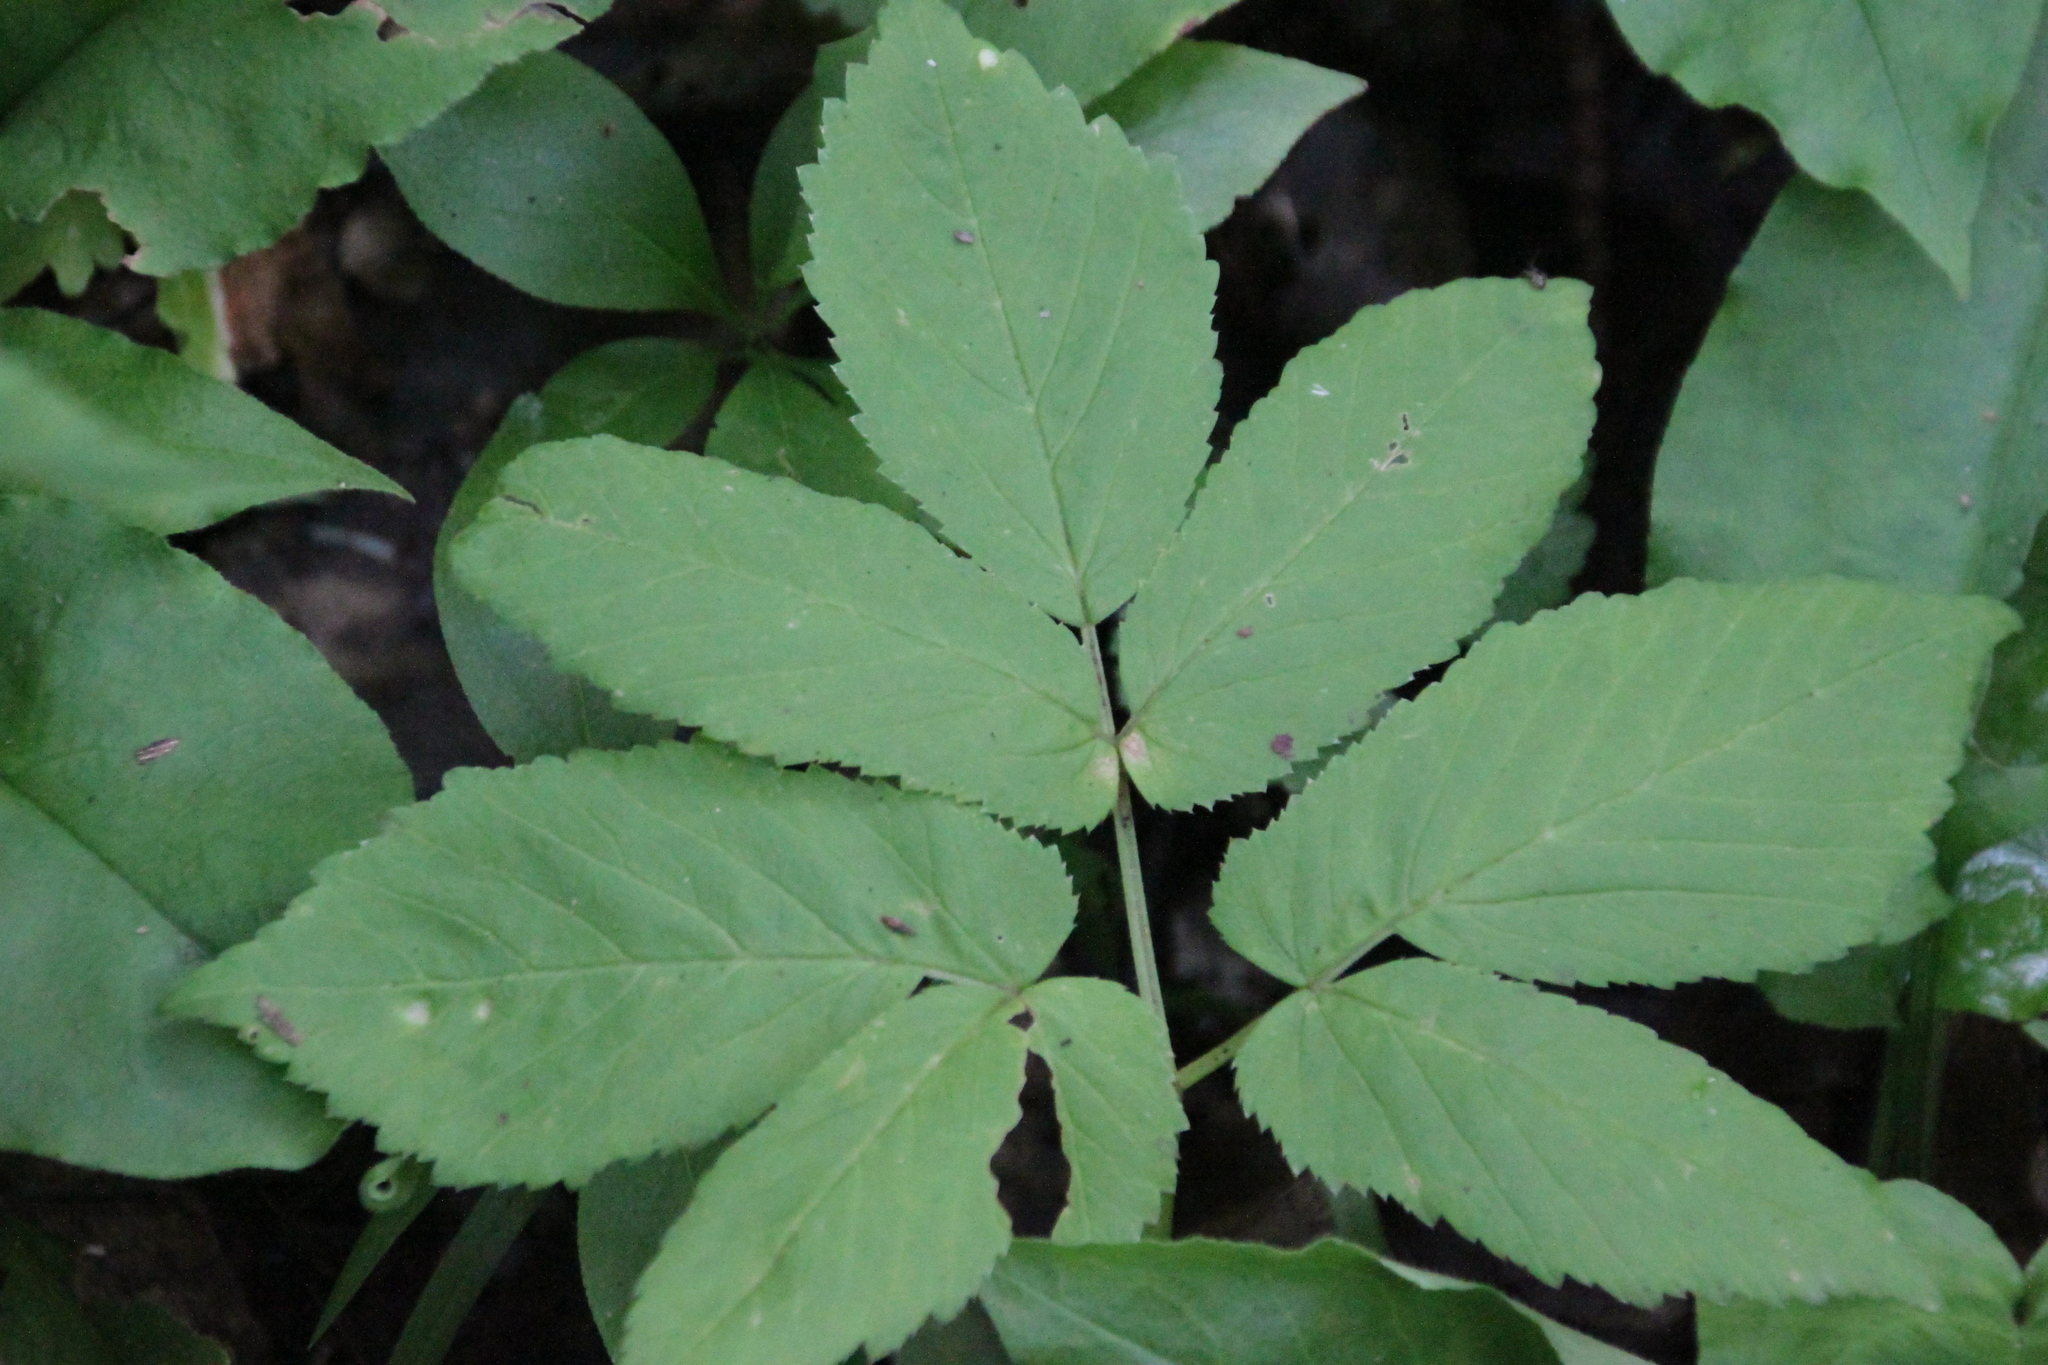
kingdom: Plantae
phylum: Tracheophyta
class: Magnoliopsida
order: Apiales
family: Apiaceae
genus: Aegopodium
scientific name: Aegopodium podagraria
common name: Ground-elder
